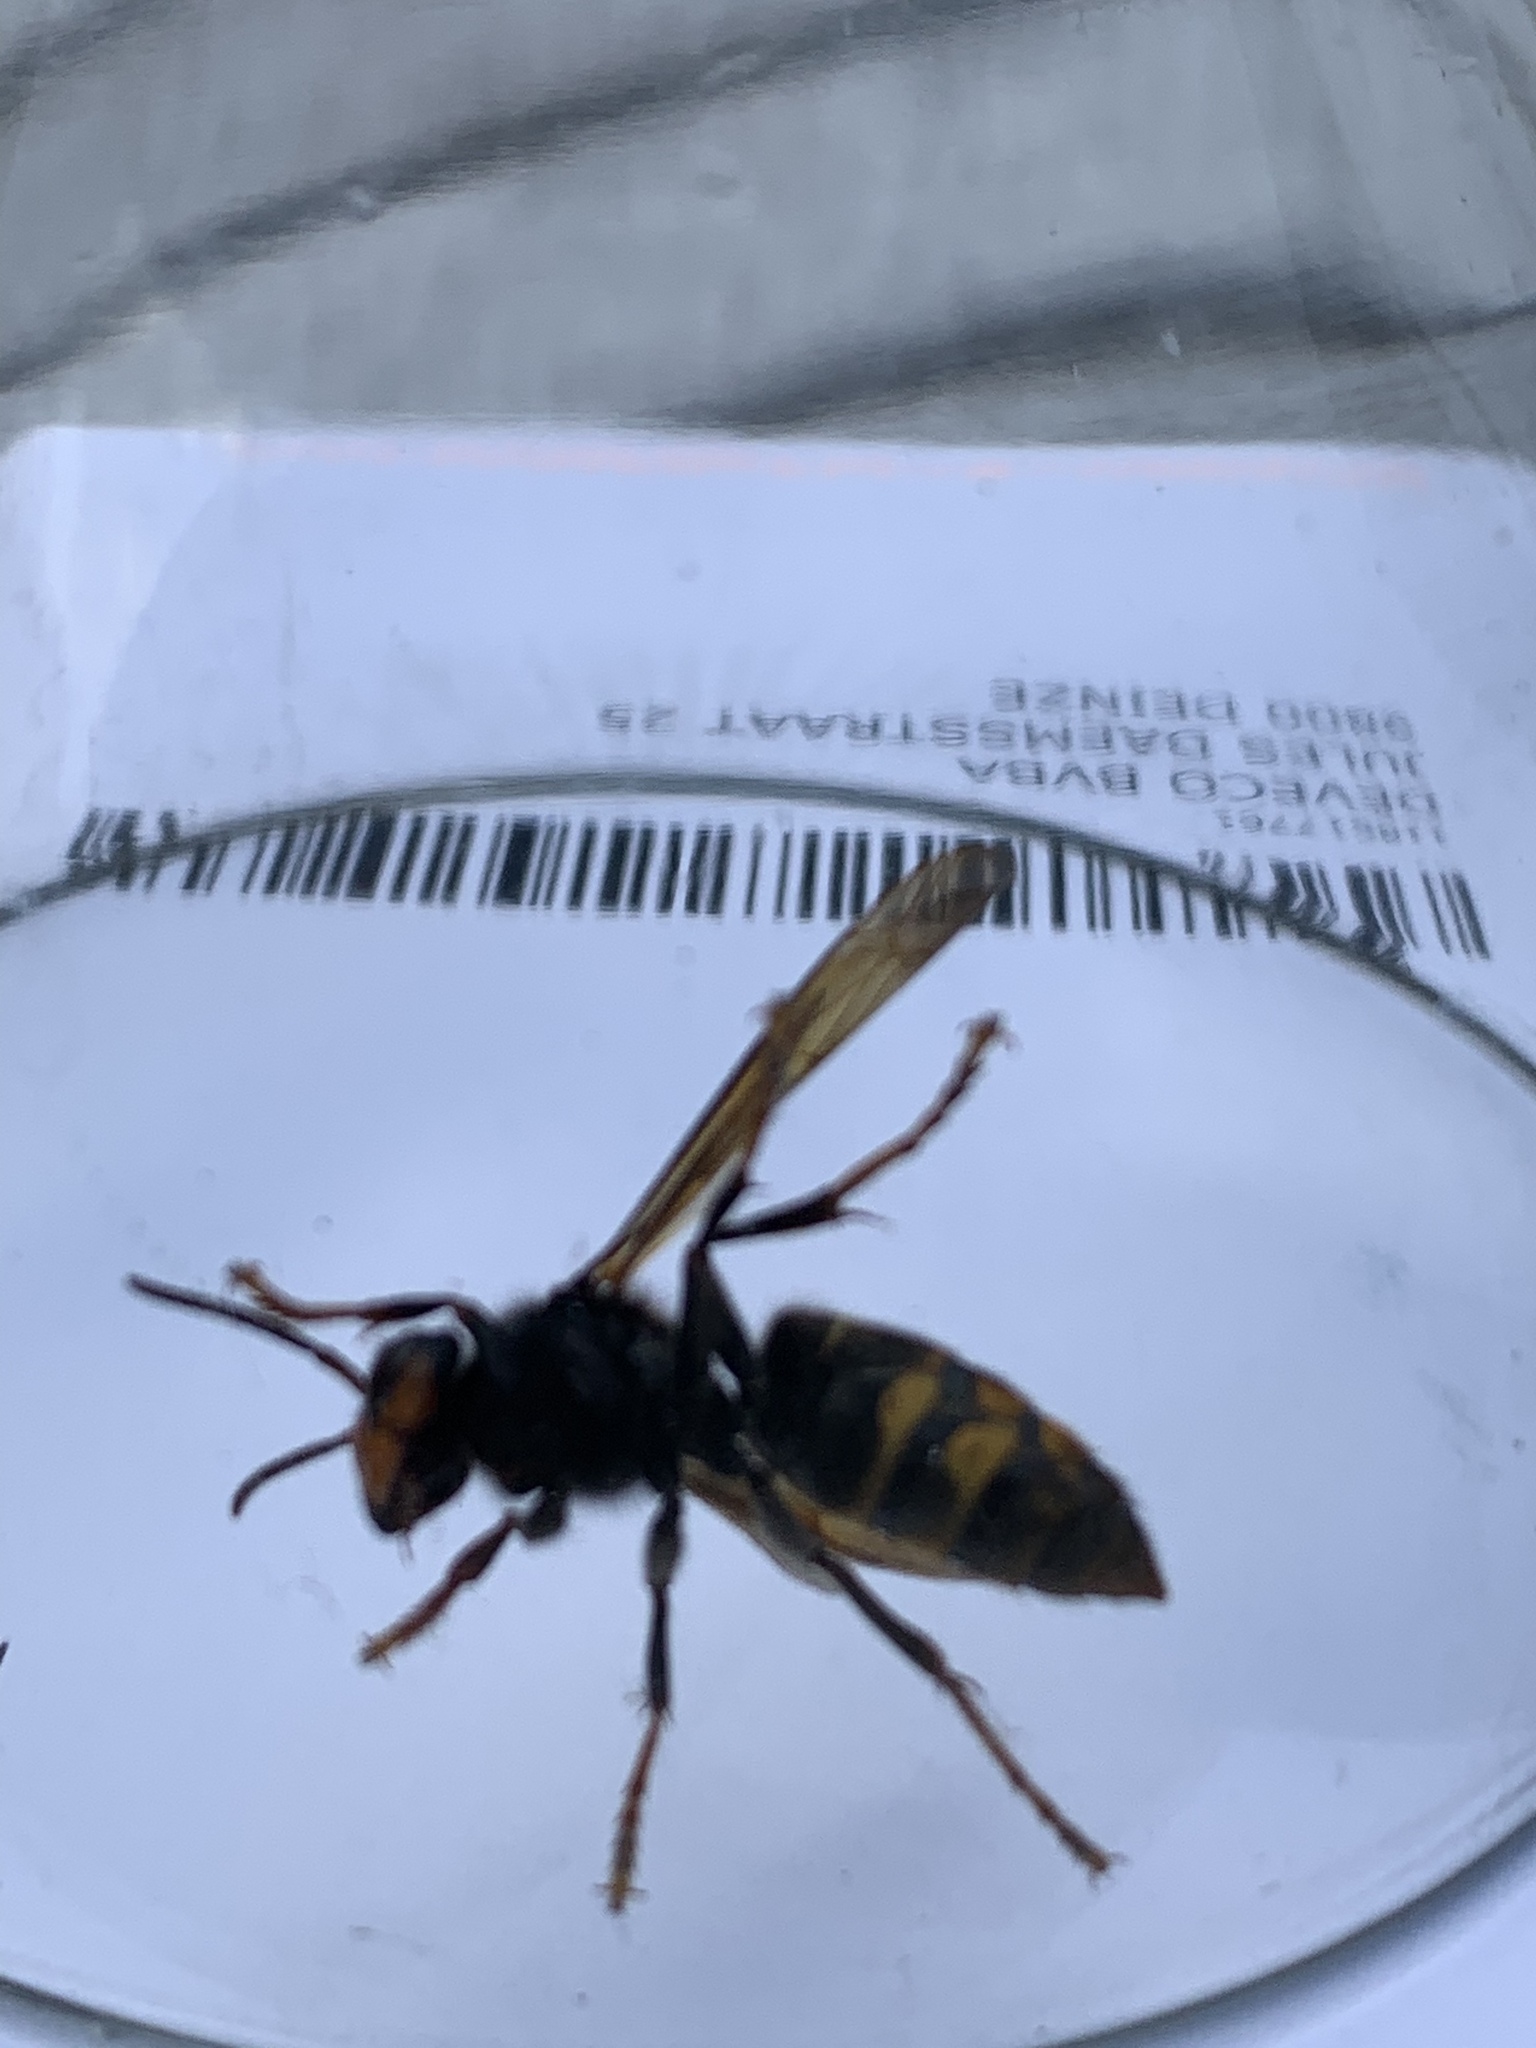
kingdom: Animalia
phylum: Arthropoda
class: Insecta
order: Hymenoptera
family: Vespidae
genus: Vespa
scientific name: Vespa velutina
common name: Asian hornet
